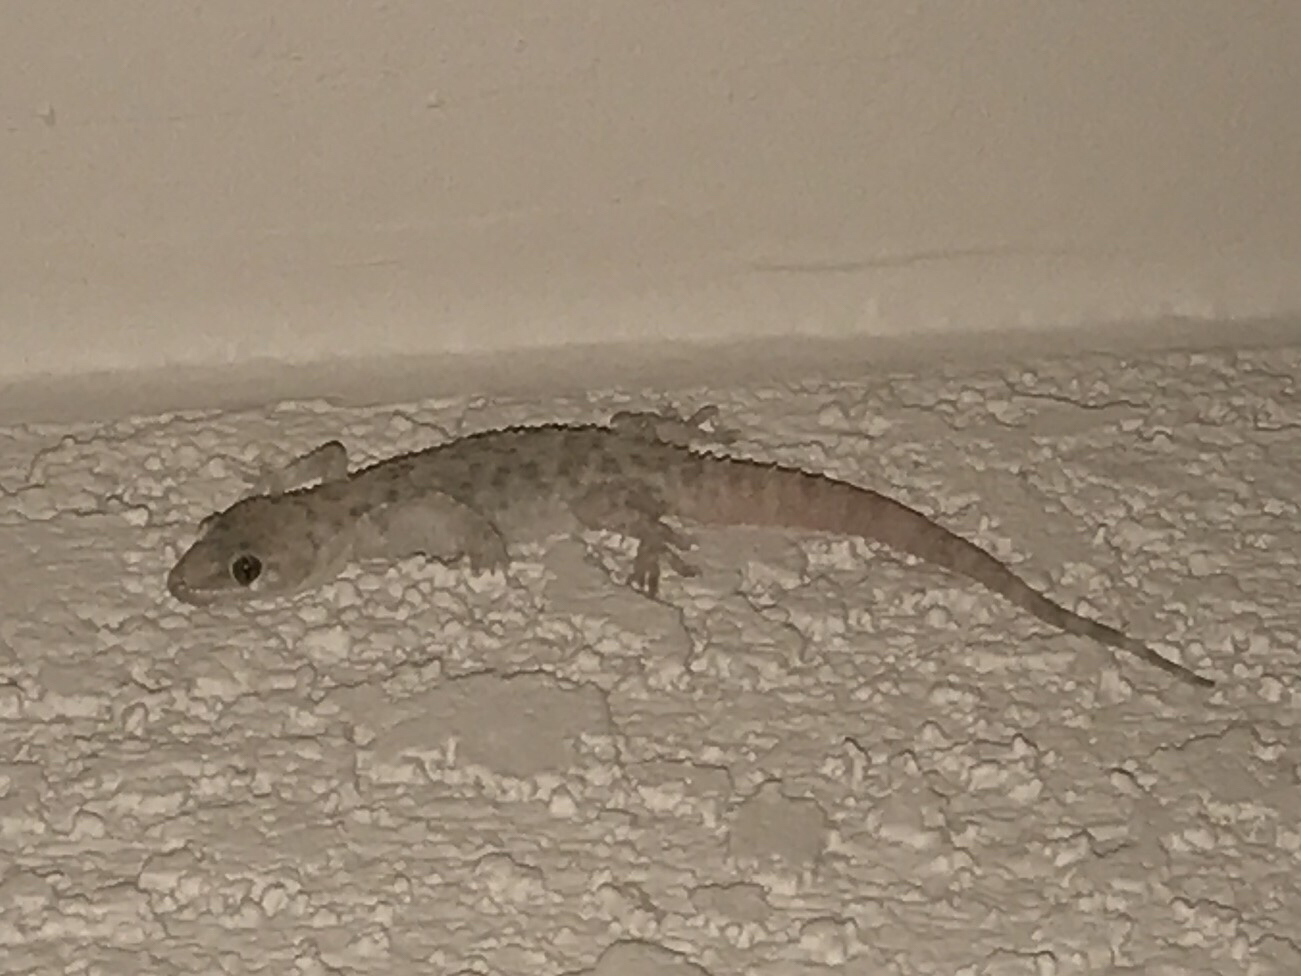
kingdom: Animalia
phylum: Chordata
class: Squamata
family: Gekkonidae
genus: Hemidactylus
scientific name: Hemidactylus turcicus
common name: Turkish gecko
